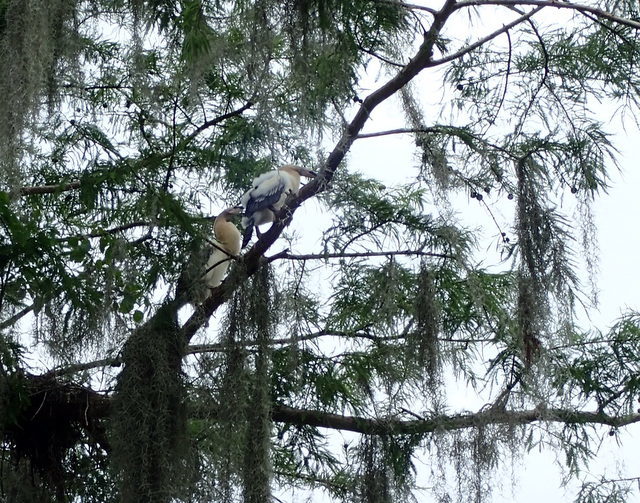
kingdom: Animalia
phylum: Chordata
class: Aves
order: Suliformes
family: Anhingidae
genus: Anhinga
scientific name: Anhinga anhinga
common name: Anhinga
